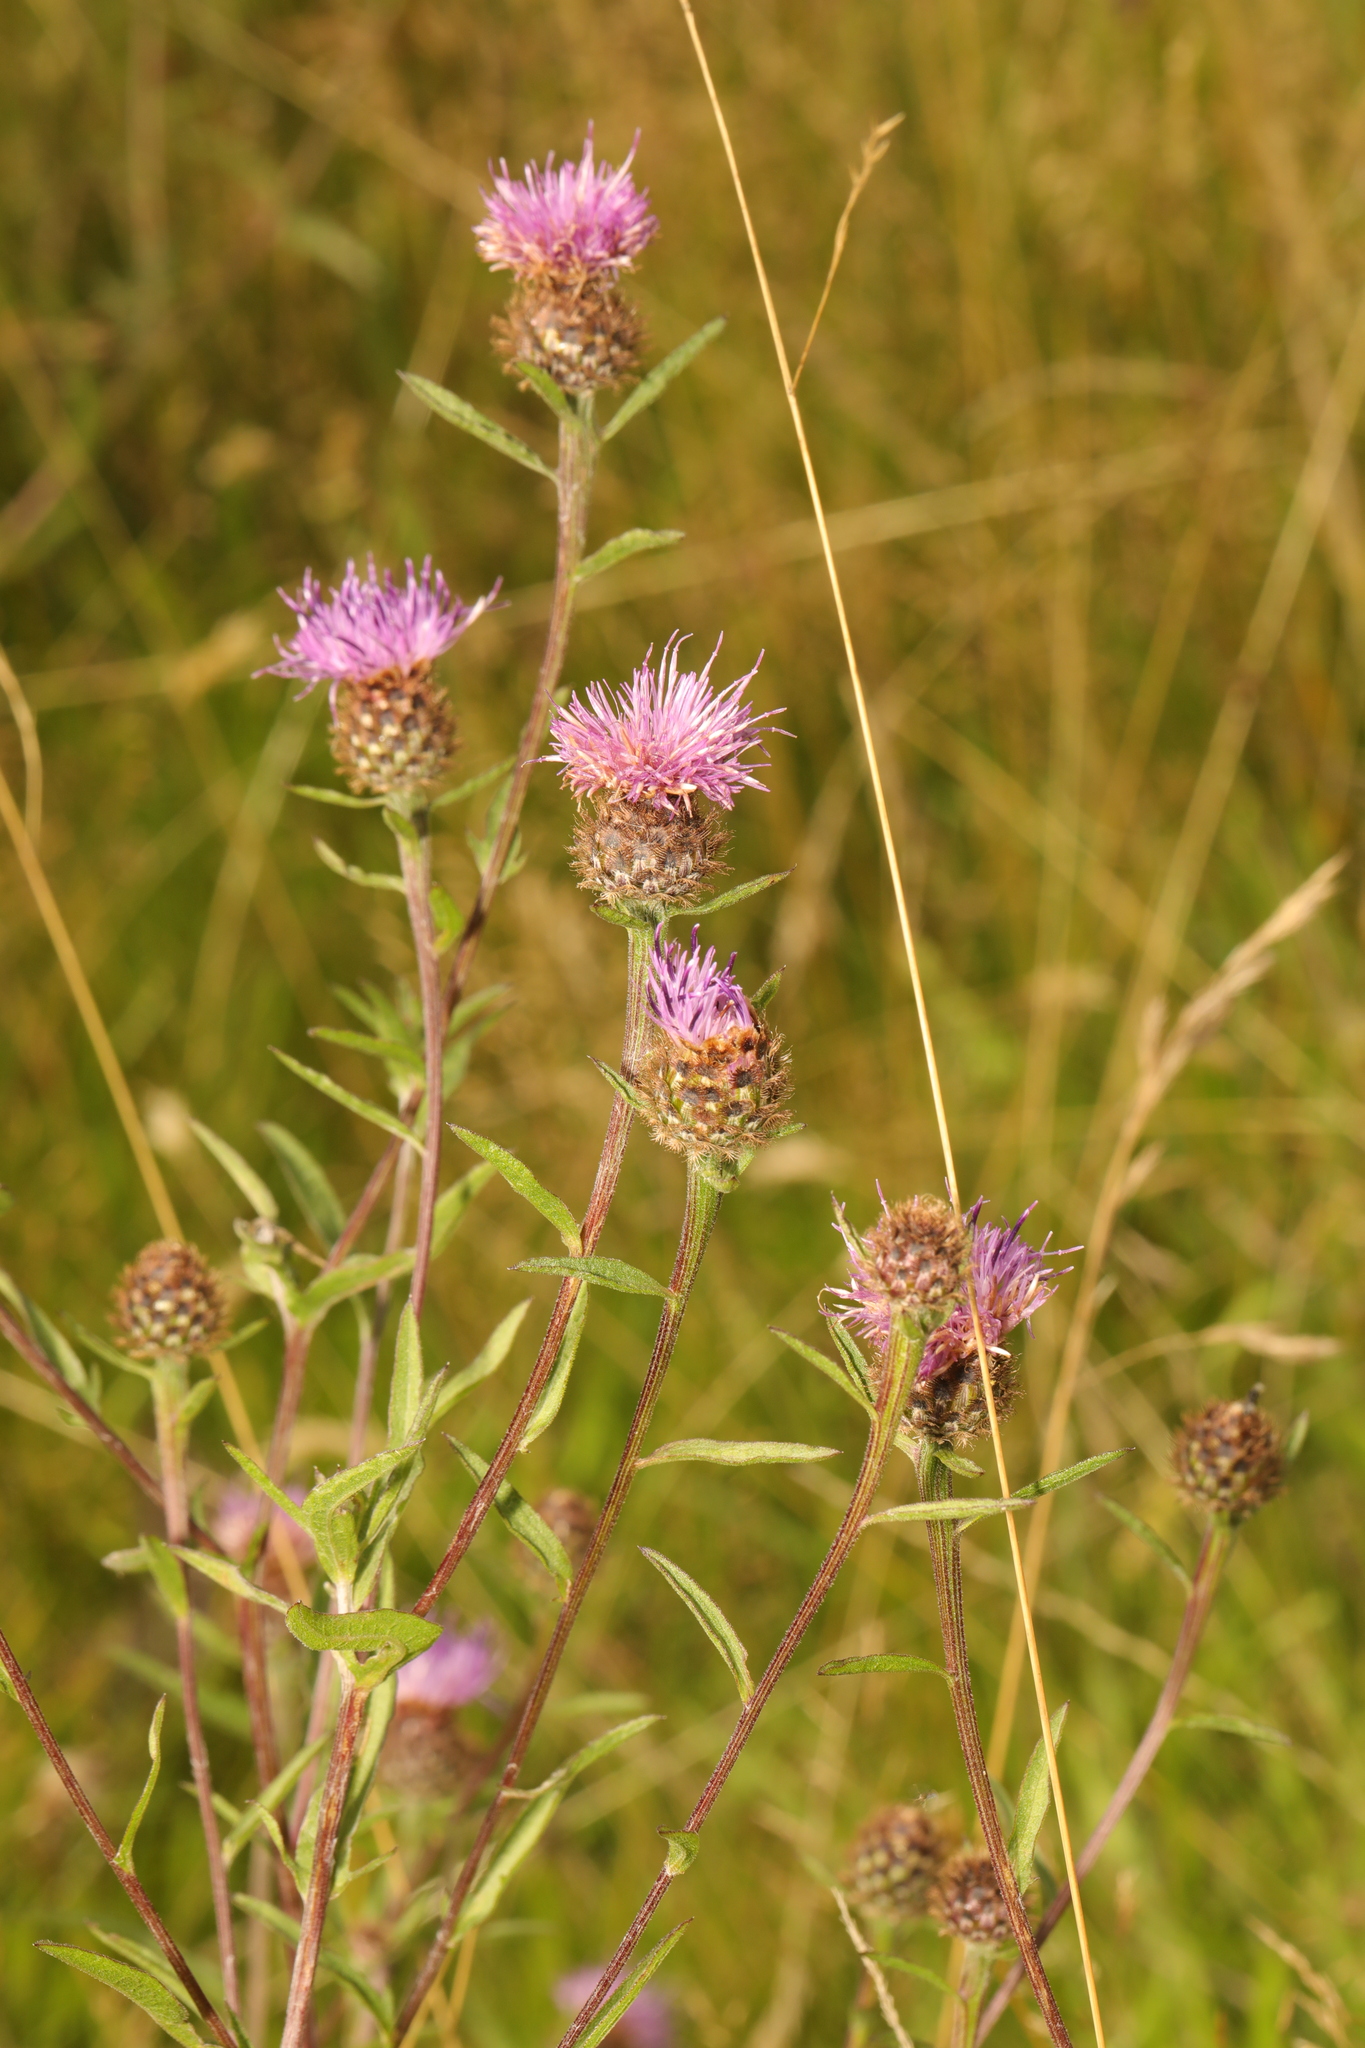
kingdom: Plantae
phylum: Tracheophyta
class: Magnoliopsida
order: Asterales
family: Asteraceae
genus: Centaurea
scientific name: Centaurea nigra
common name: Lesser knapweed
